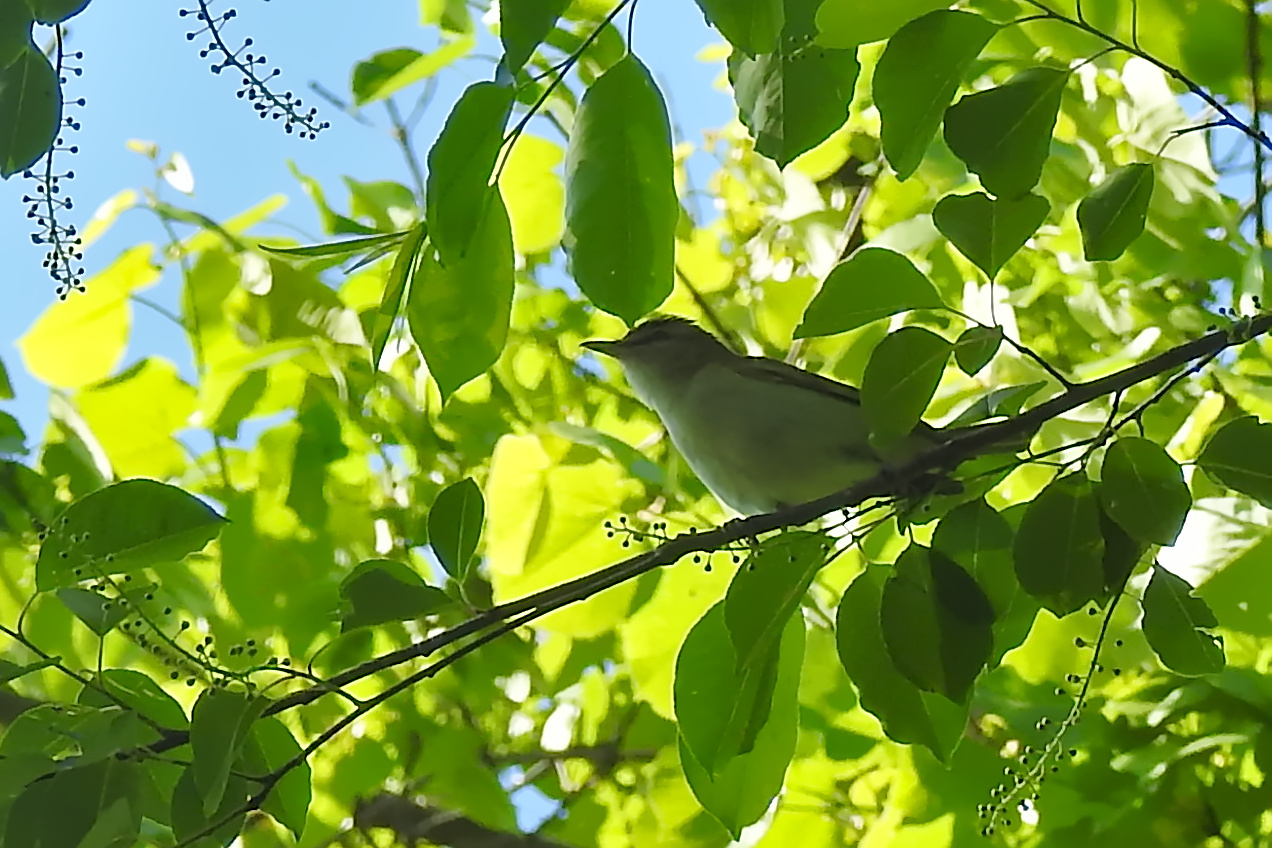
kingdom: Animalia
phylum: Chordata
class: Aves
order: Passeriformes
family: Vireonidae
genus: Vireo
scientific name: Vireo olivaceus
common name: Red-eyed vireo
